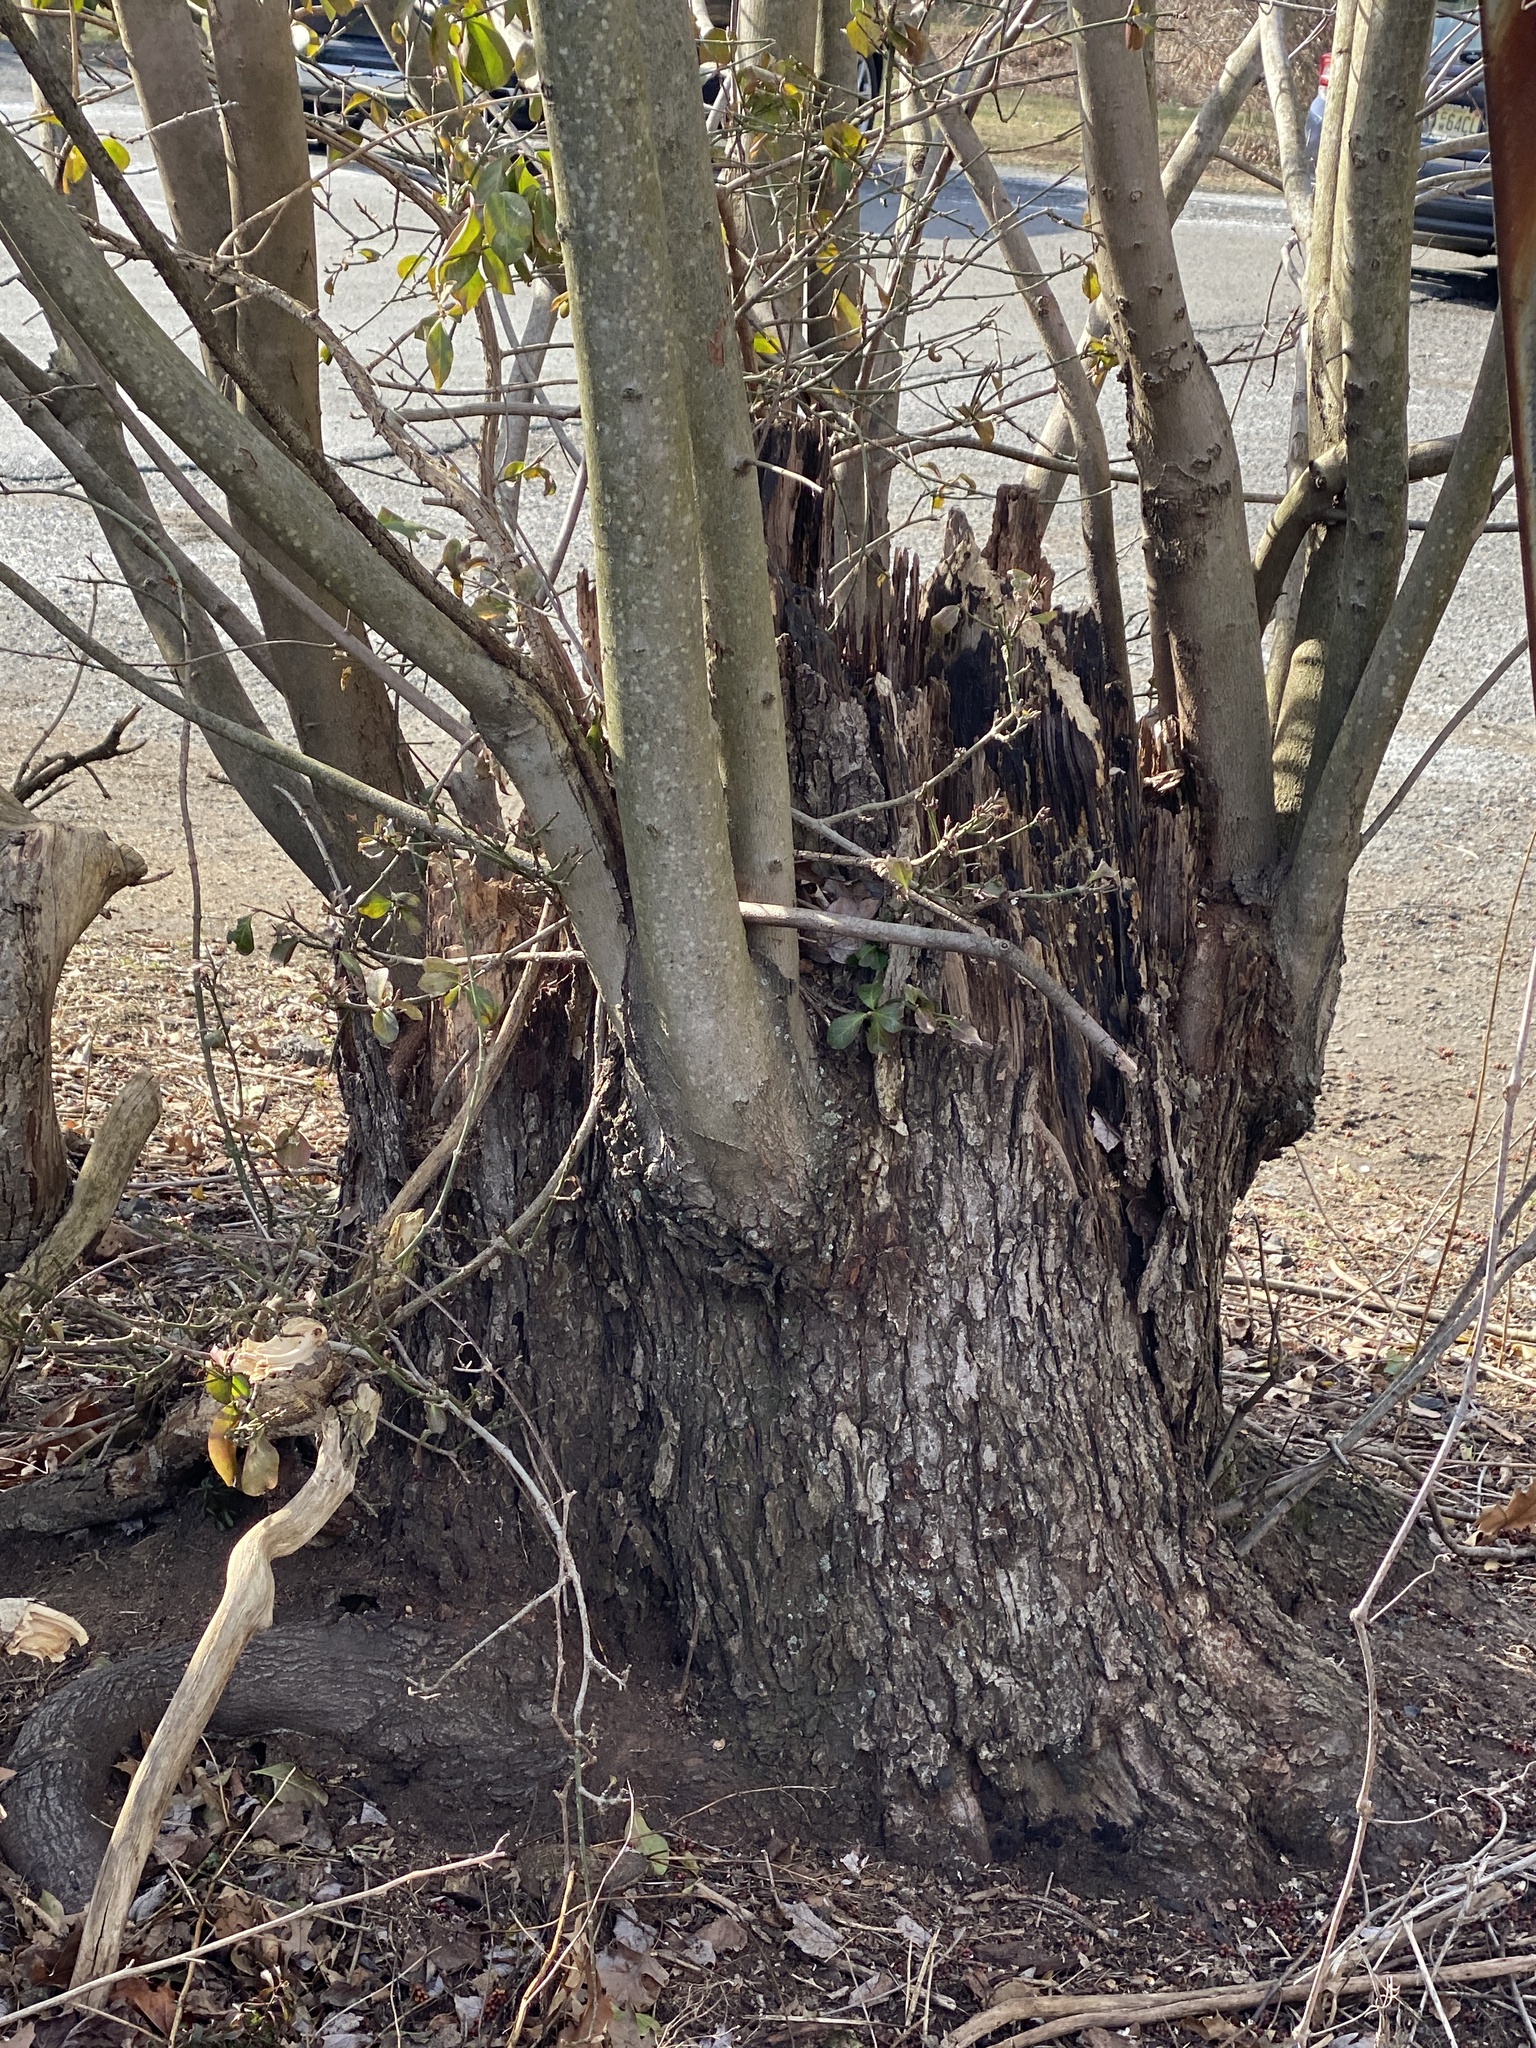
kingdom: Plantae
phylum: Tracheophyta
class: Magnoliopsida
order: Sapindales
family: Sapindaceae
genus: Acer
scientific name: Acer rubrum
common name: Red maple
